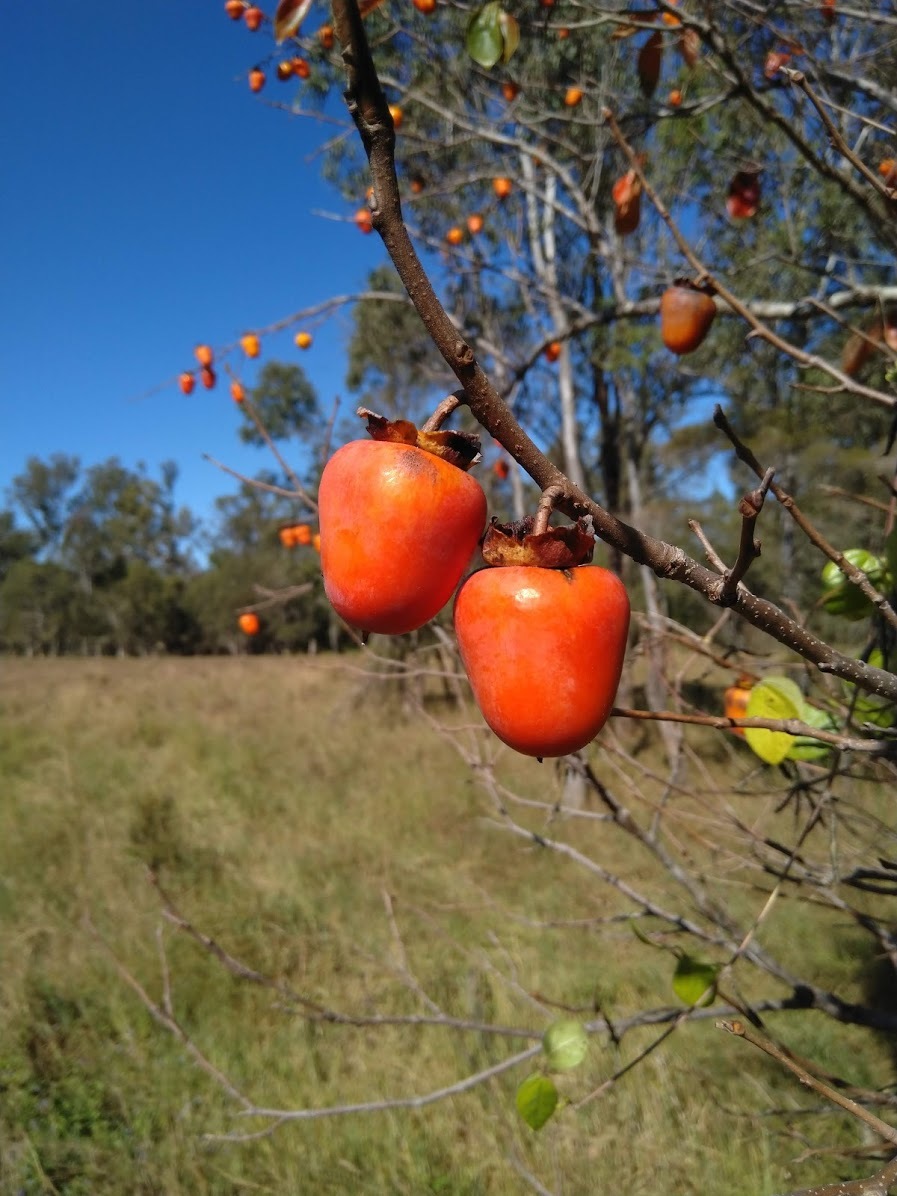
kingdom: Plantae
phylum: Tracheophyta
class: Magnoliopsida
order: Ericales
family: Ebenaceae
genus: Diospyros
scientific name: Diospyros kaki
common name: Persimmon
